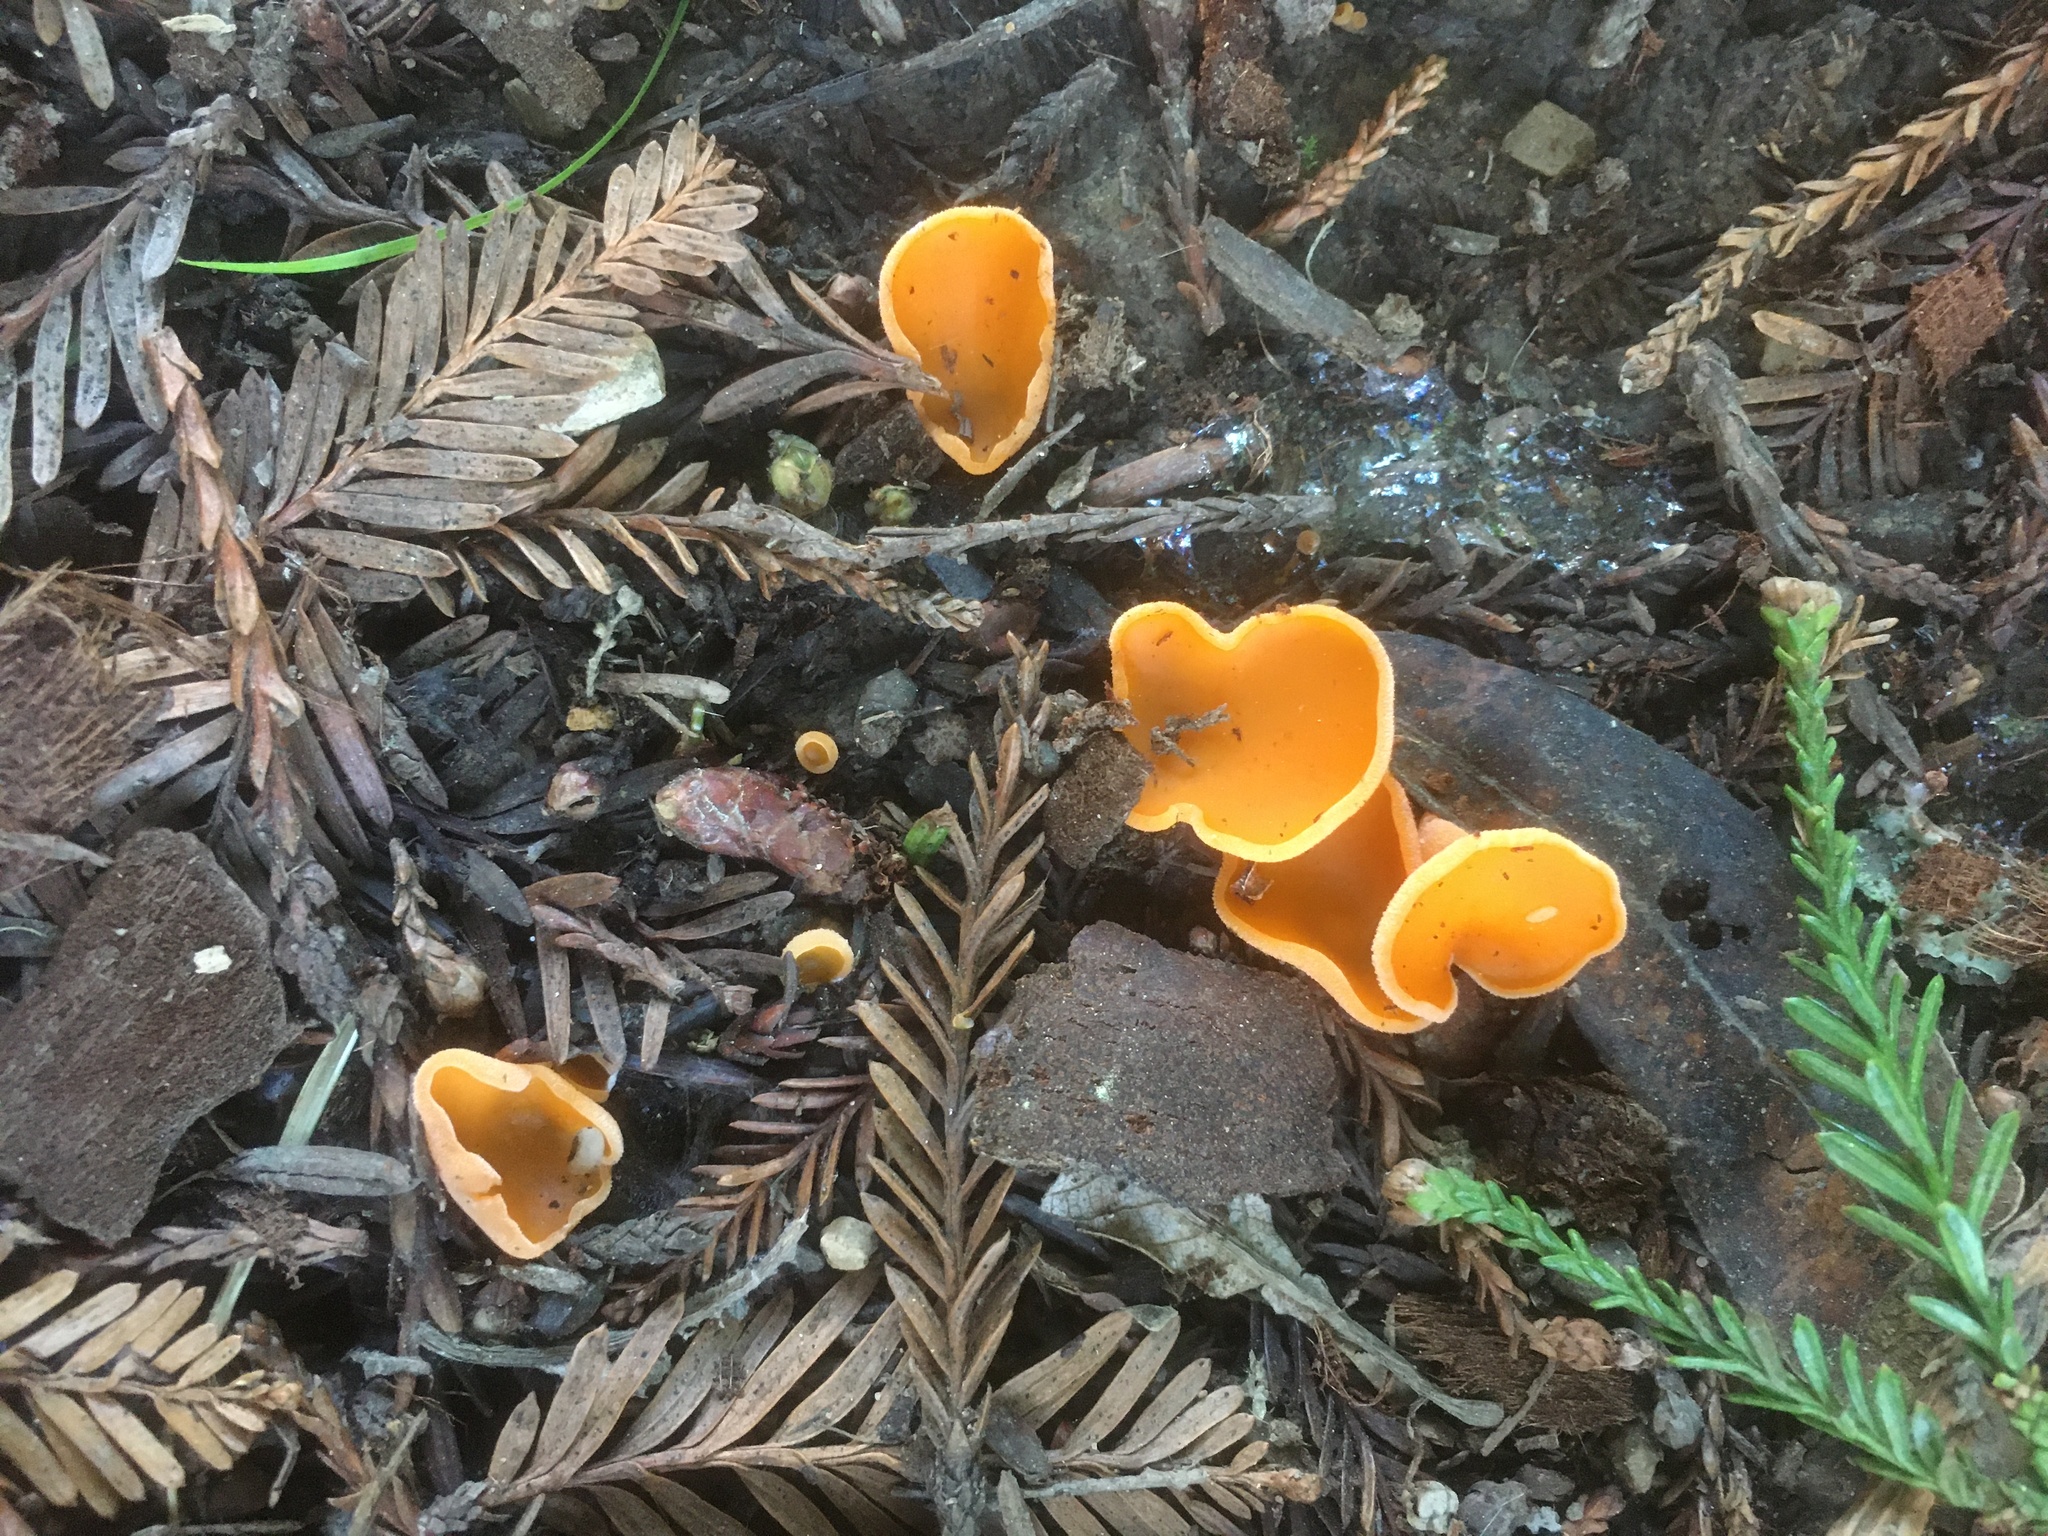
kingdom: Fungi
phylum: Ascomycota
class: Pezizomycetes
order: Pezizales
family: Pyronemataceae
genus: Aleuria
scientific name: Aleuria aurantia
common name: Orange peel fungus
